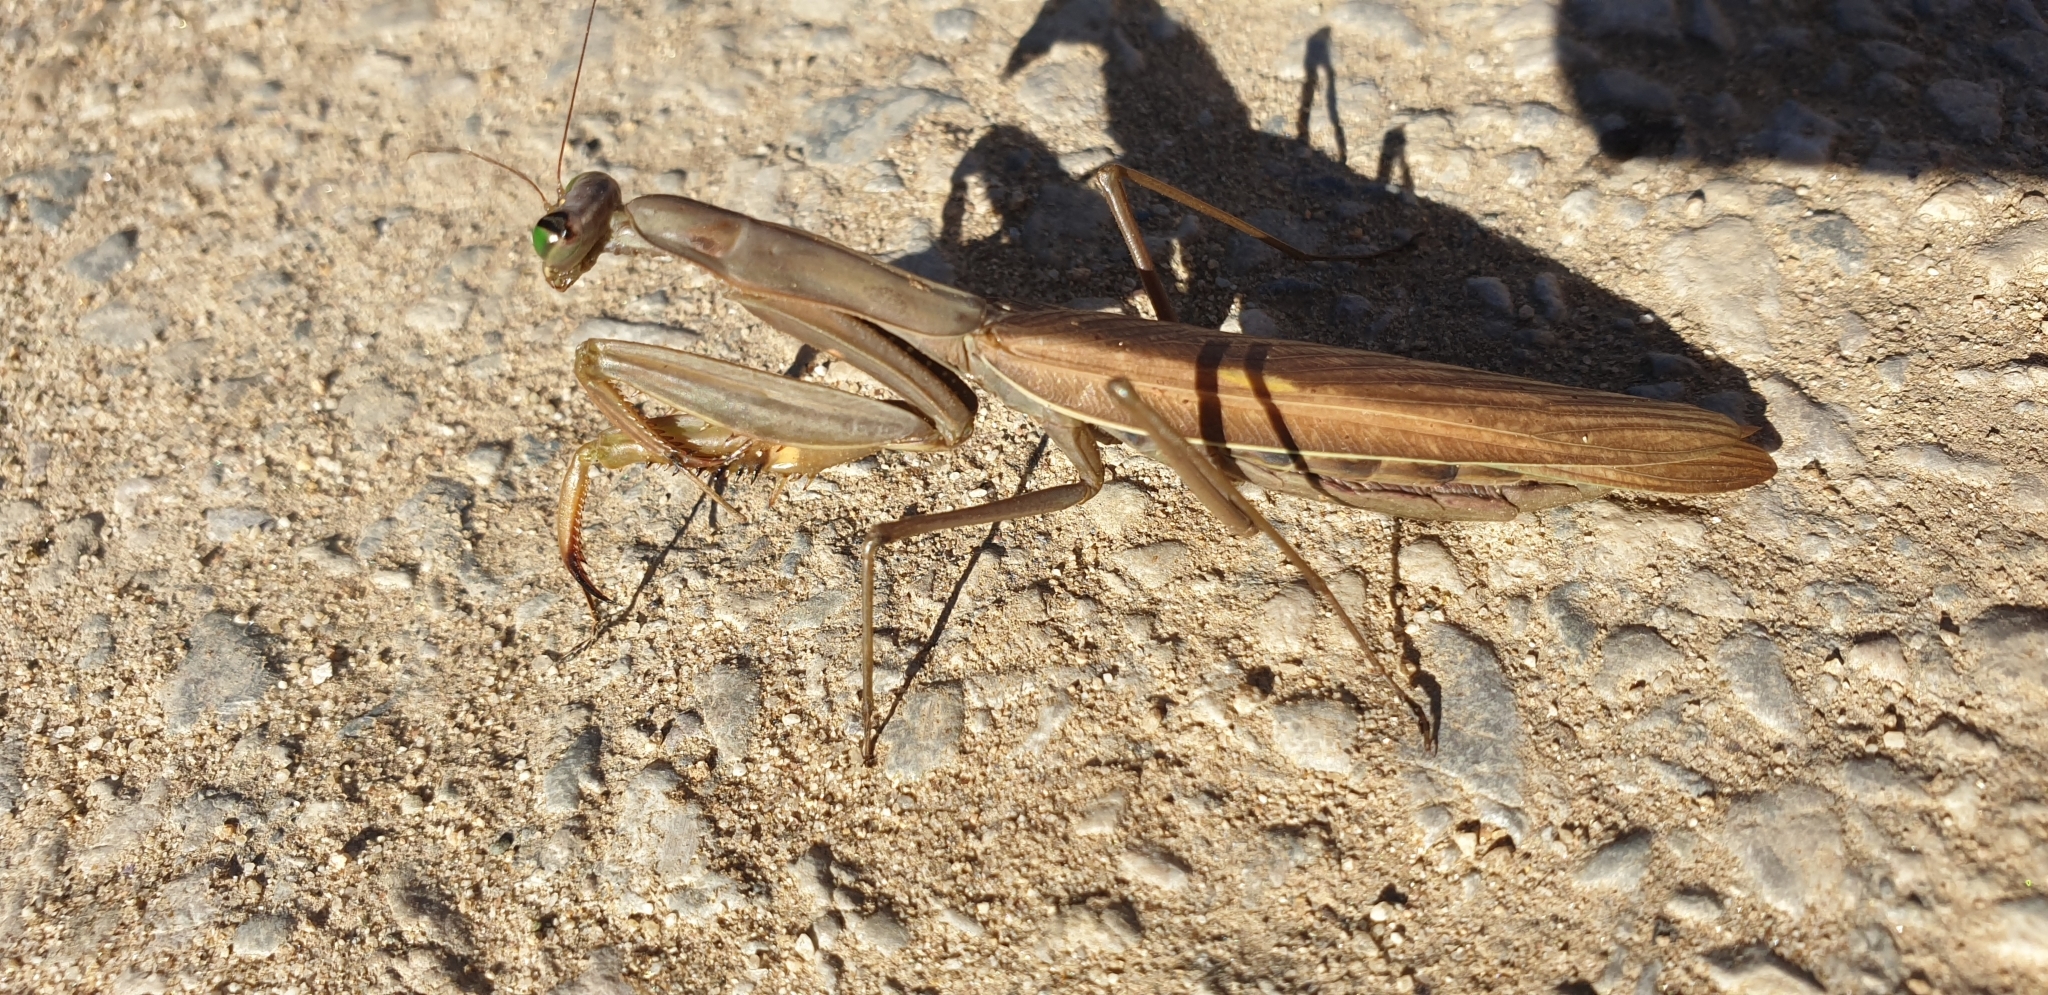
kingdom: Animalia
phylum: Arthropoda
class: Insecta
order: Mantodea
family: Mantidae
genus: Mantis
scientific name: Mantis religiosa
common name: Praying mantis
